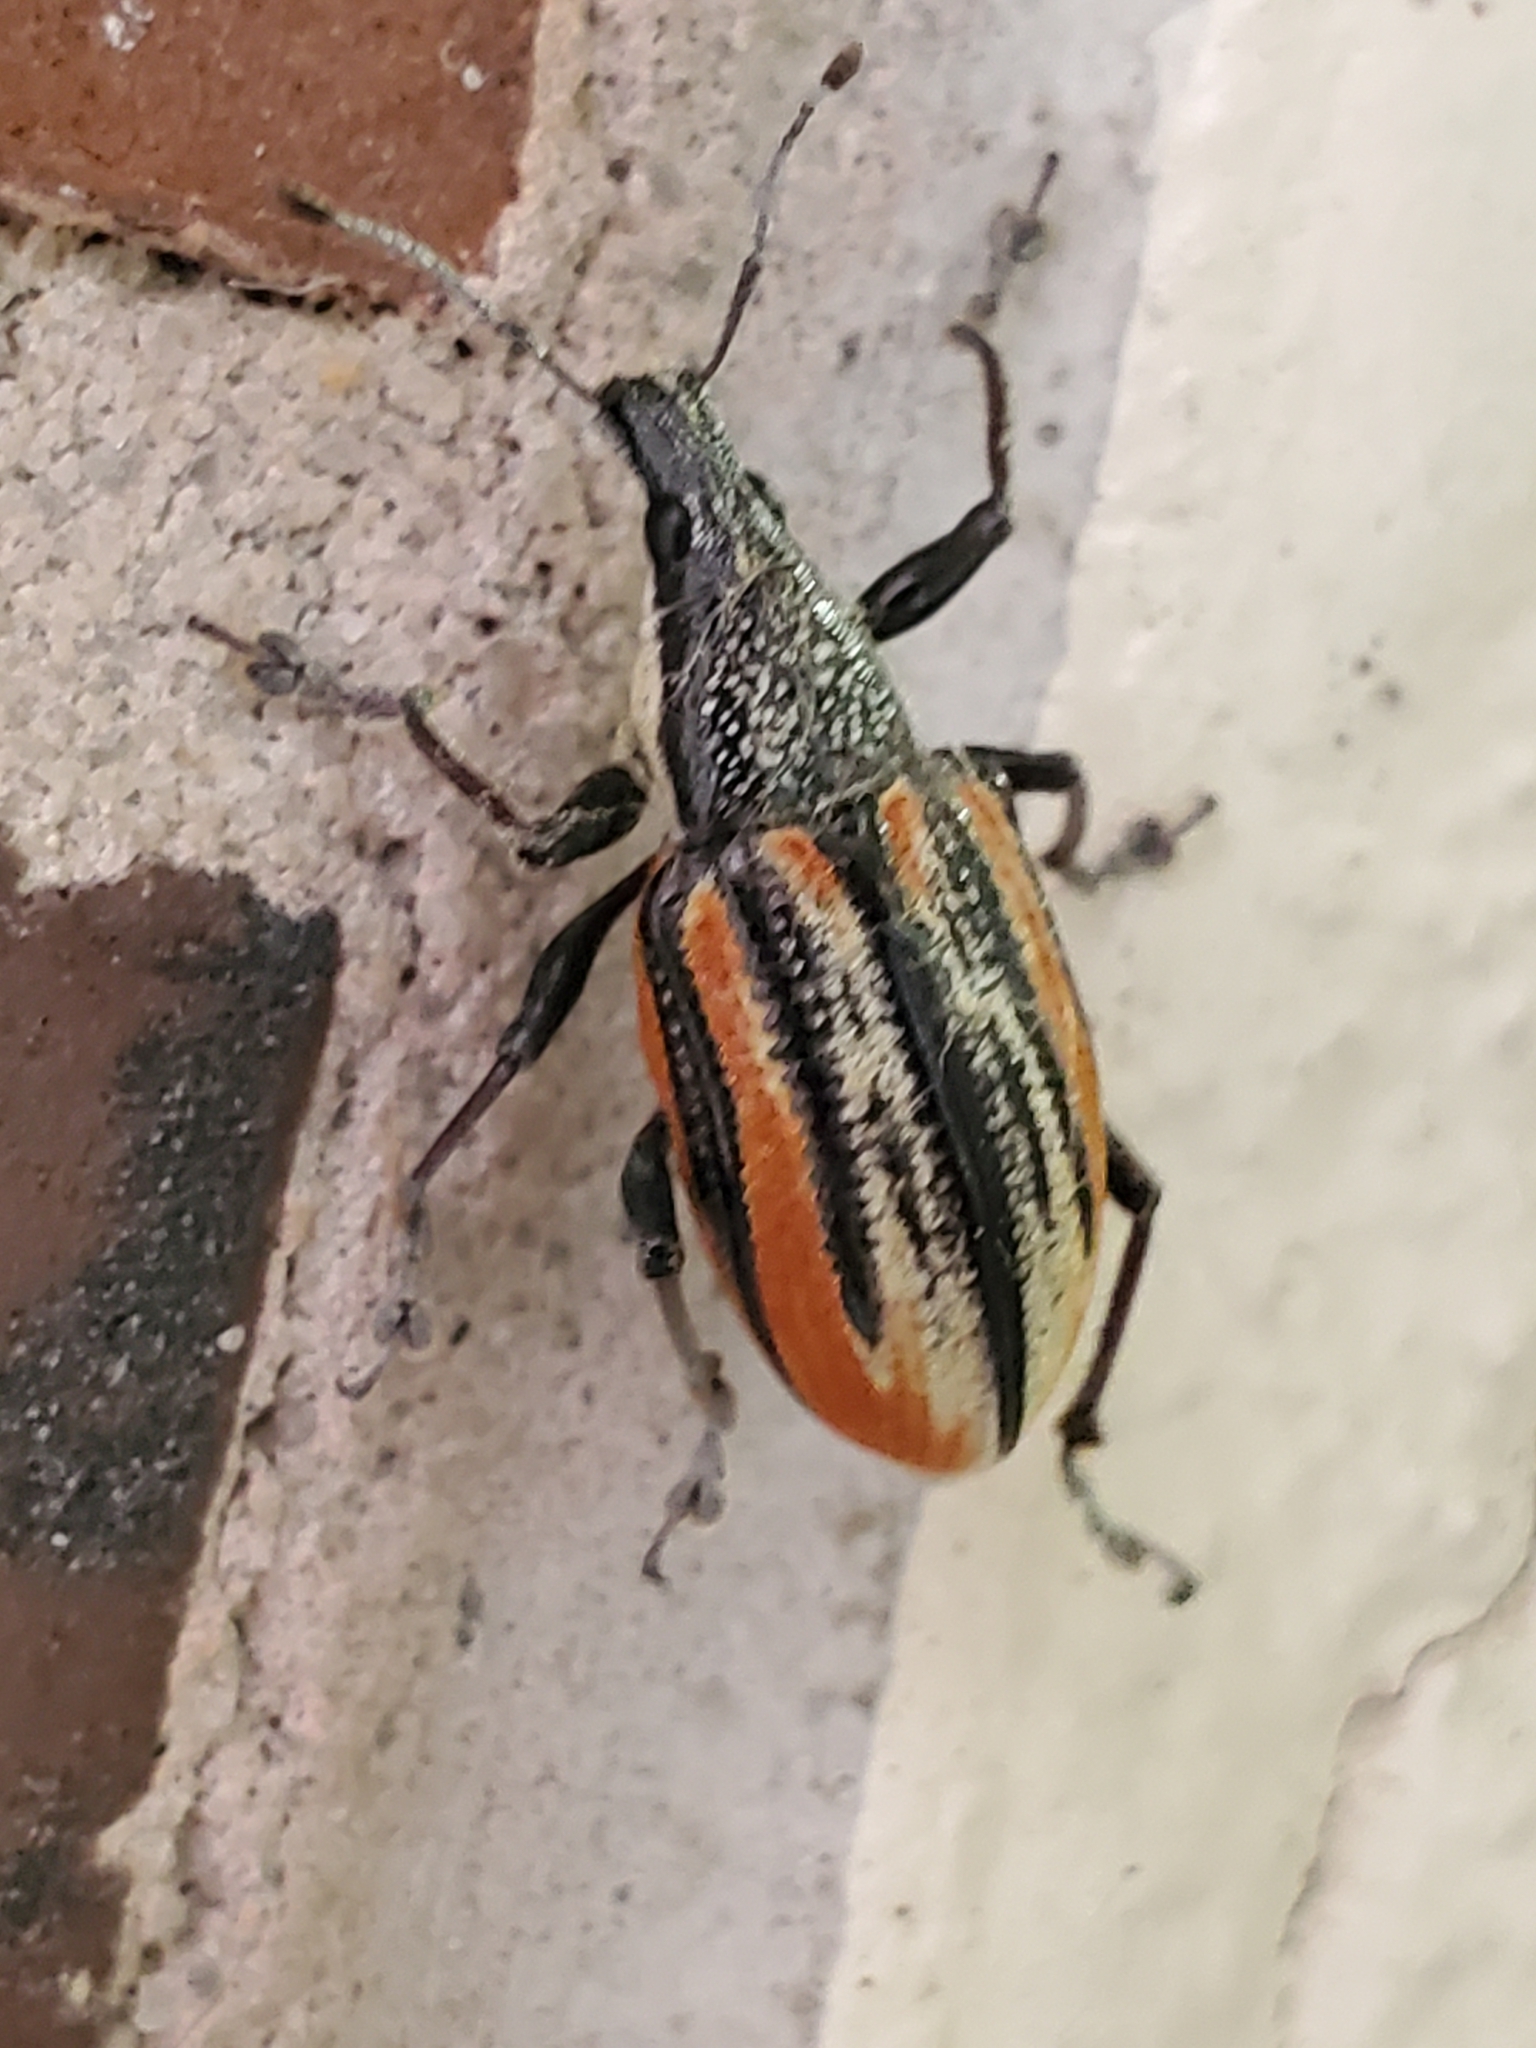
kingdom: Animalia
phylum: Arthropoda
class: Insecta
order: Coleoptera
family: Curculionidae
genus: Diaprepes
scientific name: Diaprepes abbreviatus
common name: Root weevil
